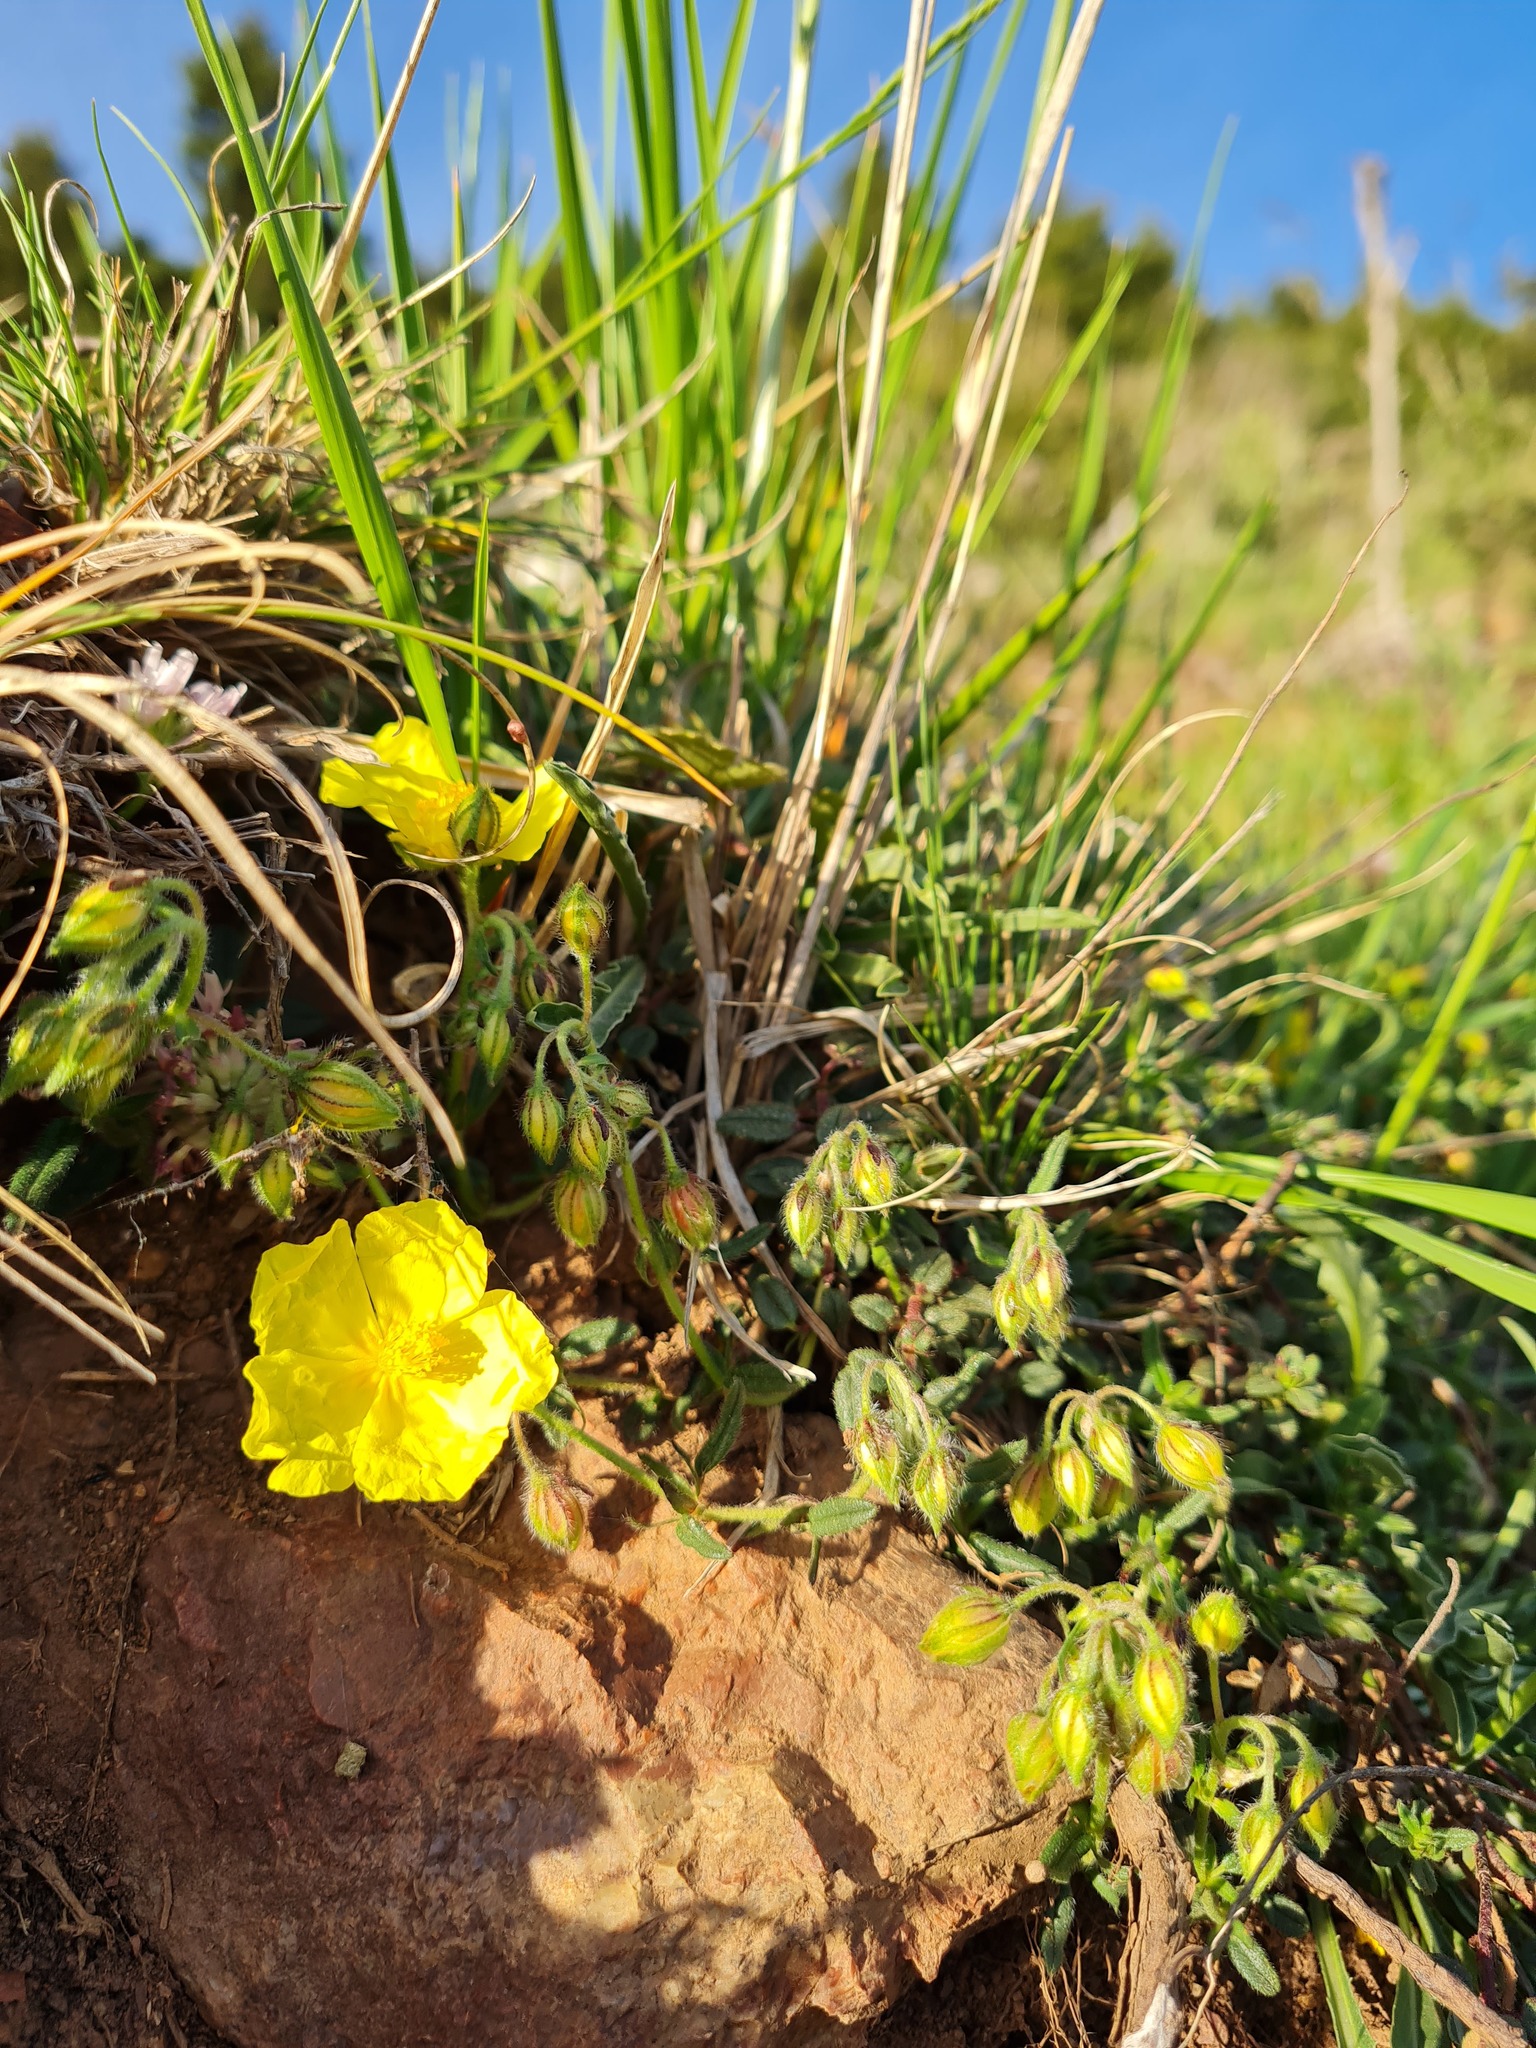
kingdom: Plantae
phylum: Tracheophyta
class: Magnoliopsida
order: Malvales
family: Cistaceae
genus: Helianthemum
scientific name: Helianthemum nummularium
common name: Common rock-rose
